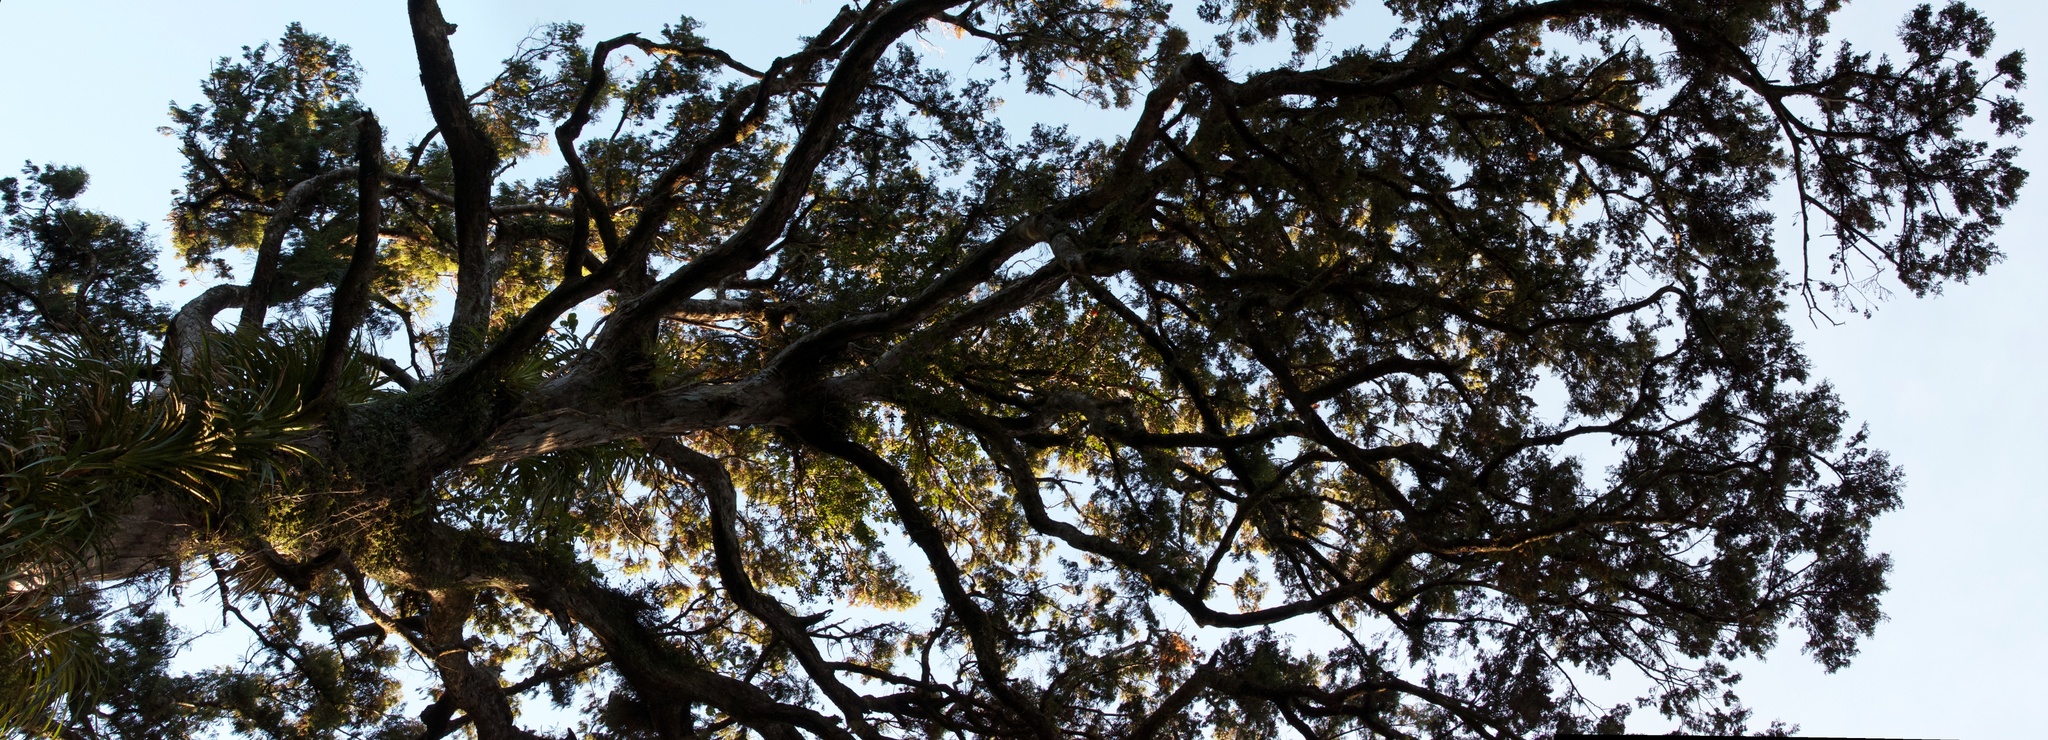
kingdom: Plantae
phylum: Tracheophyta
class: Pinopsida
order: Pinales
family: Podocarpaceae
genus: Dacrydium
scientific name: Dacrydium cupressinum
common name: Red pine
